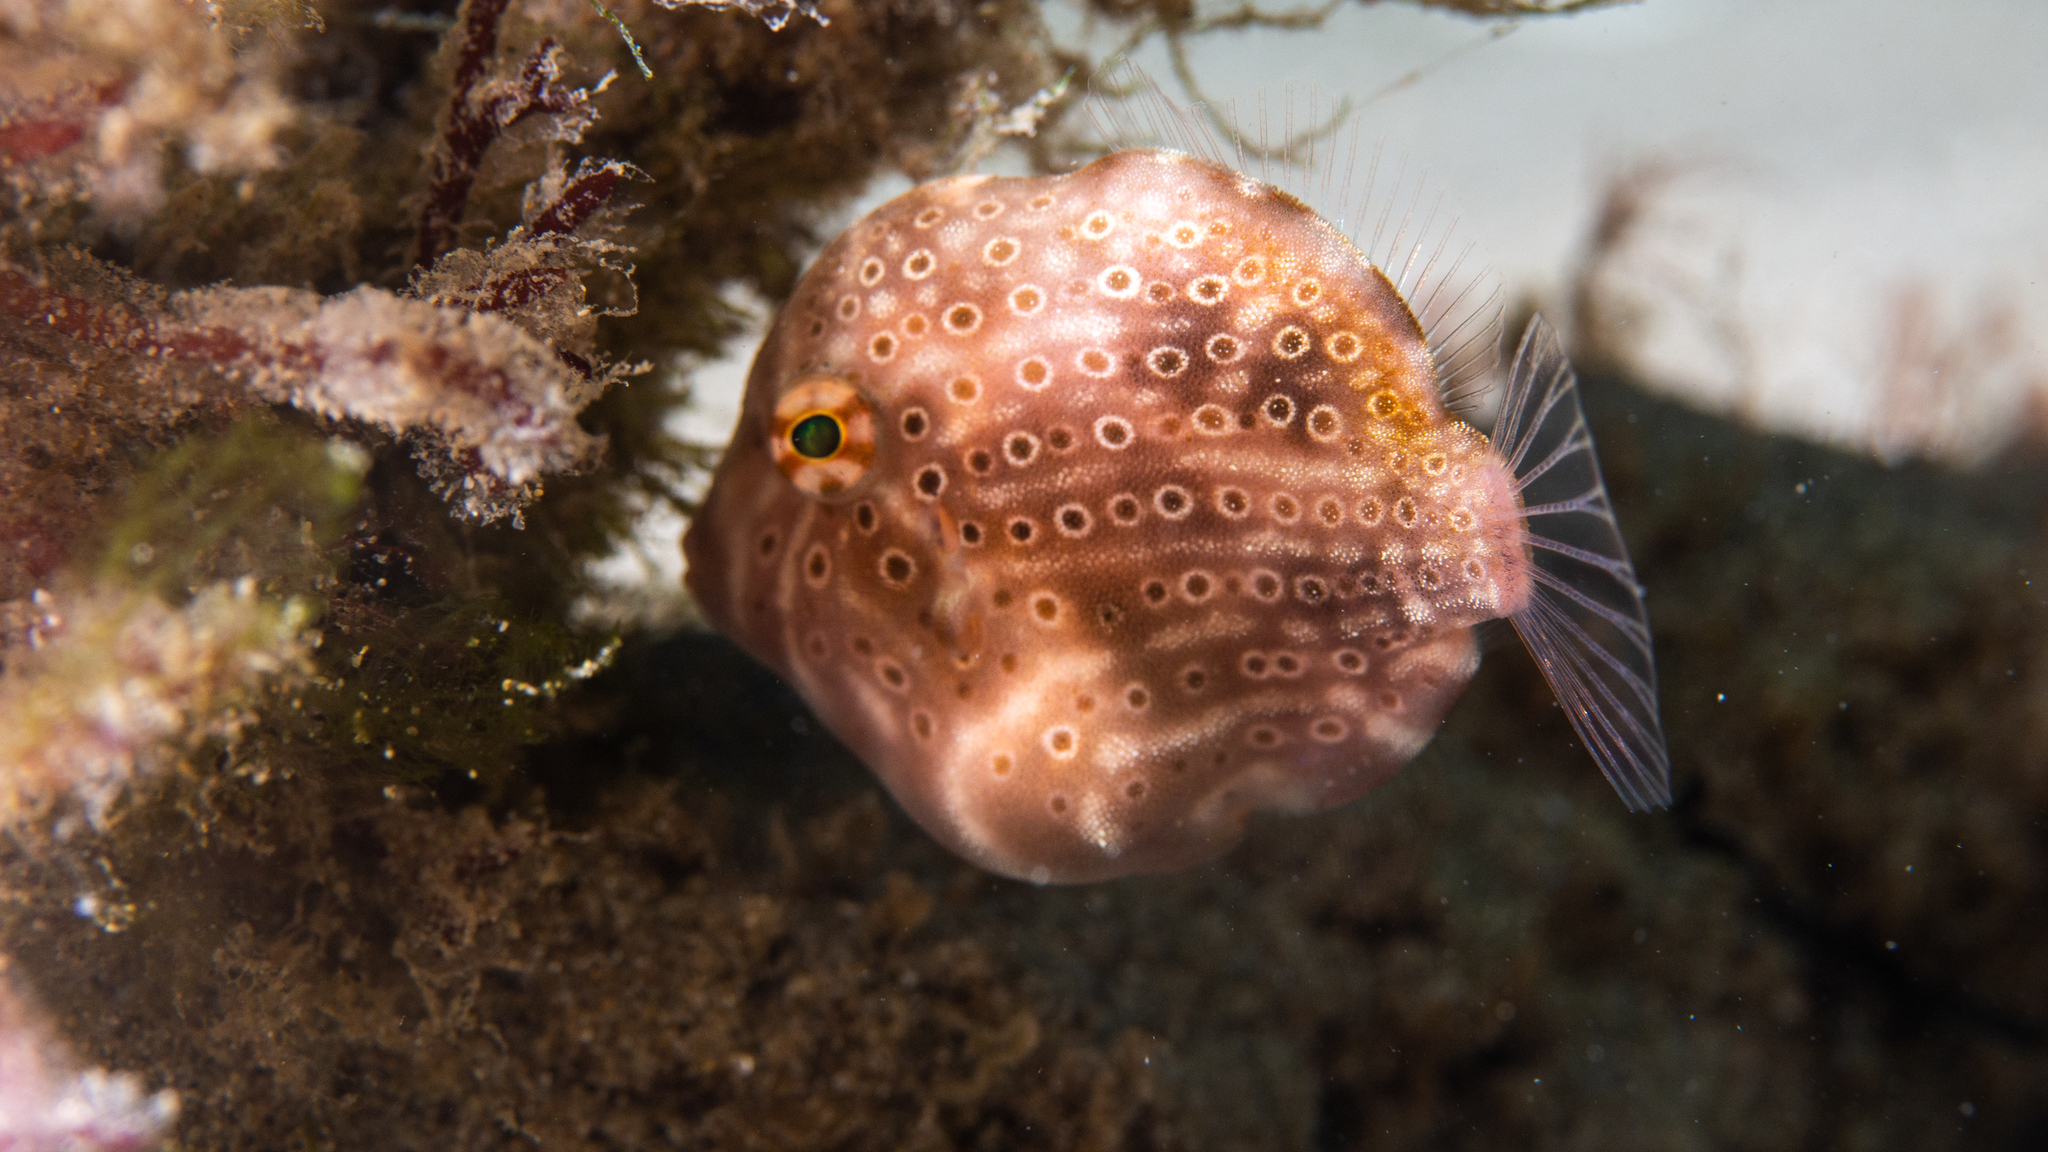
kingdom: Animalia
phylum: Chordata
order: Tetraodontiformes
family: Monacanthidae
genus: Brachaluteres
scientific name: Brachaluteres jacksonianus
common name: Pigmy leatherjacket
